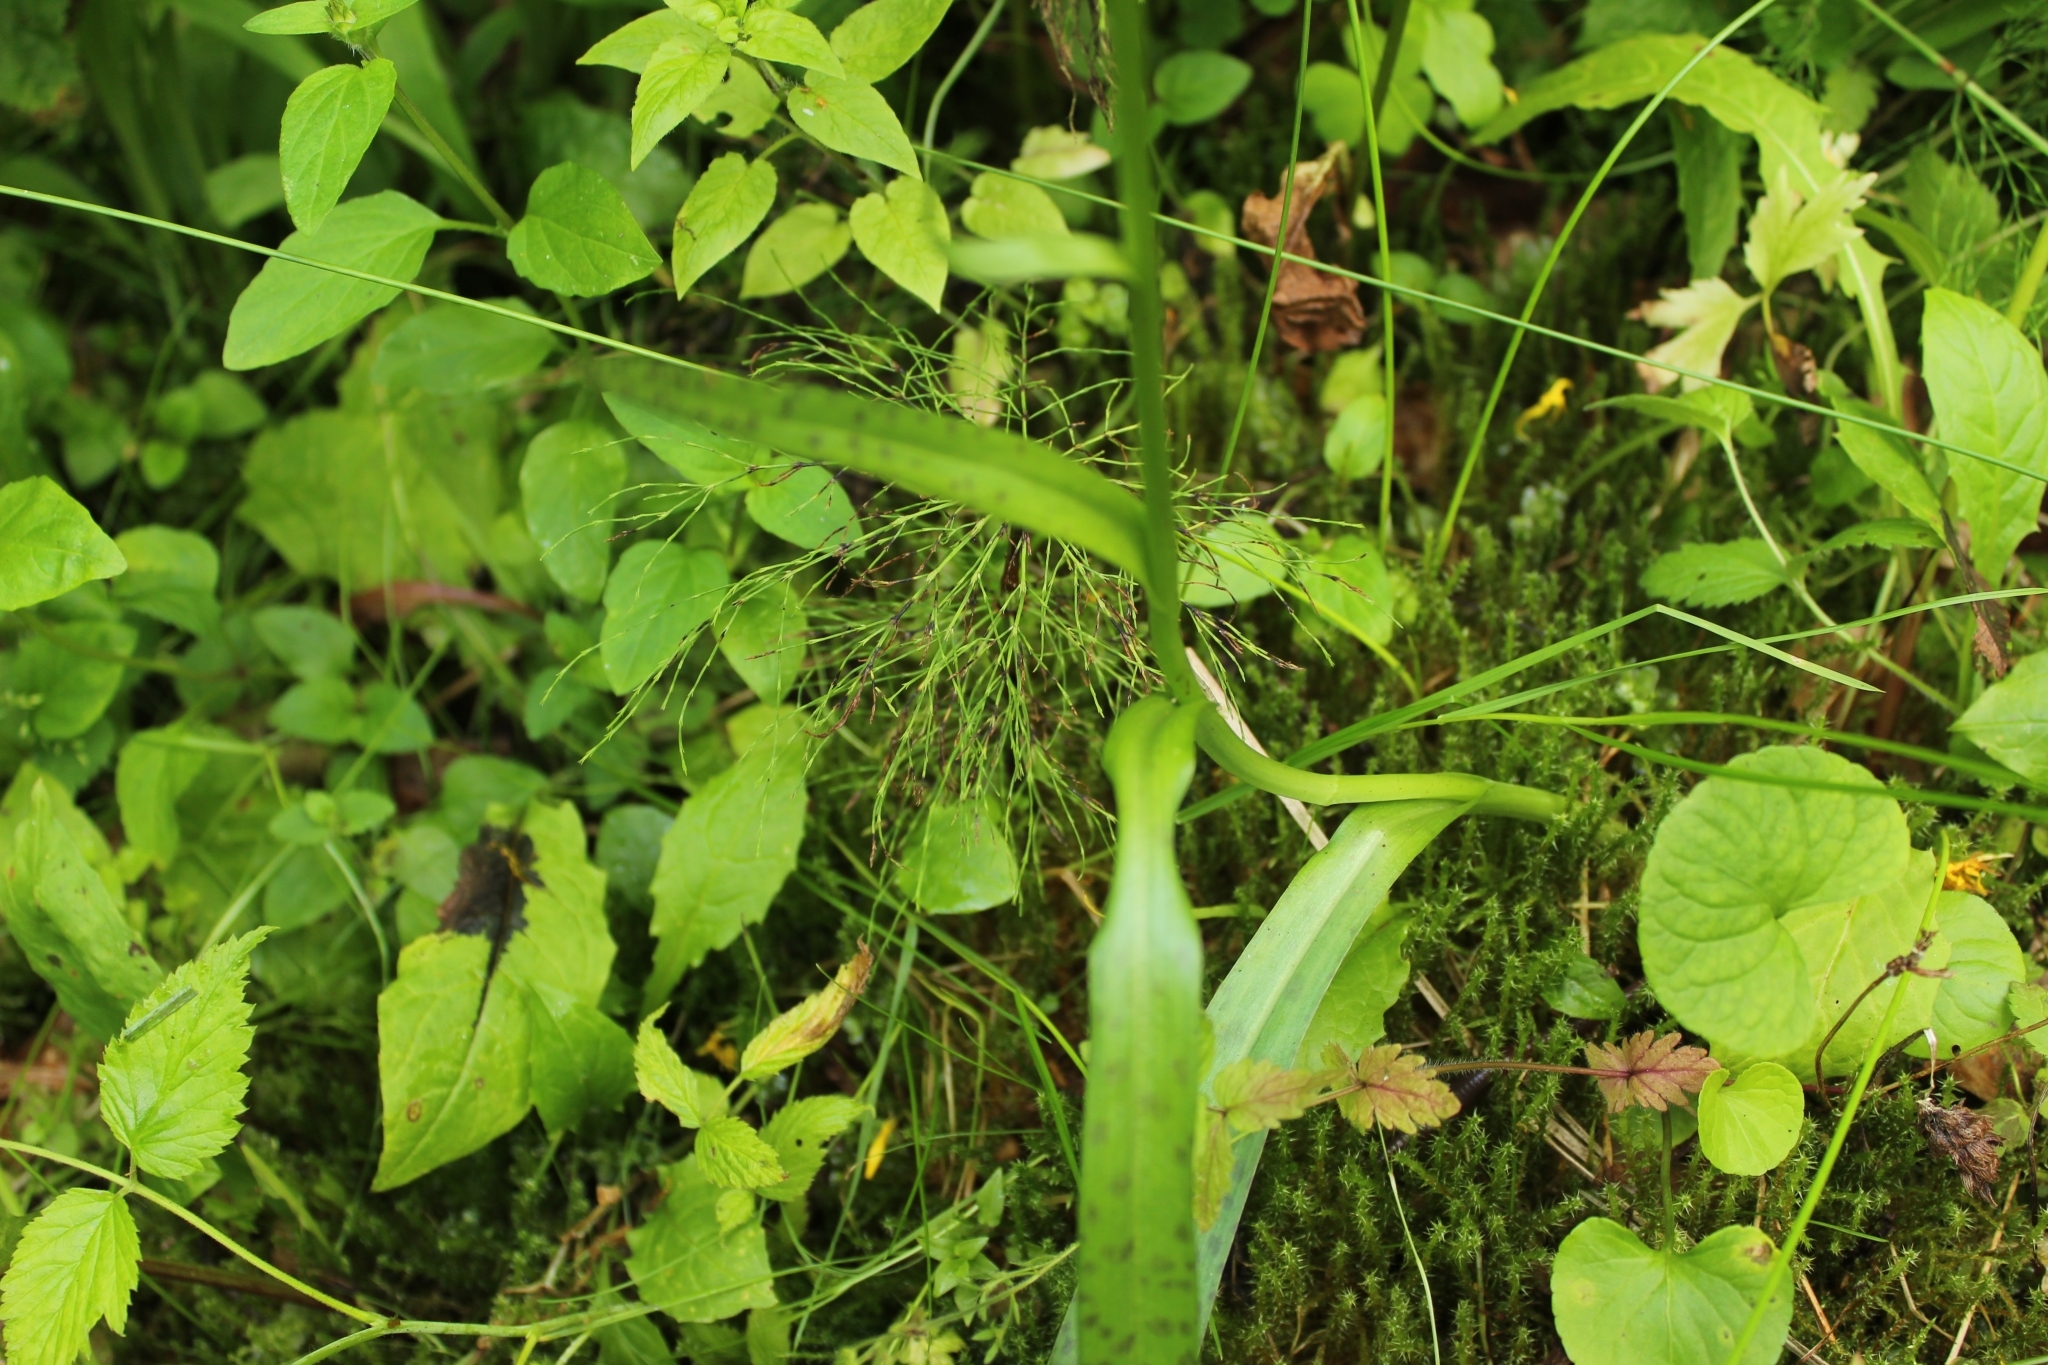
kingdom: Plantae
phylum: Tracheophyta
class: Liliopsida
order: Asparagales
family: Orchidaceae
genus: Dactylorhiza
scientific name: Dactylorhiza majalis
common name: Marsh orchid
